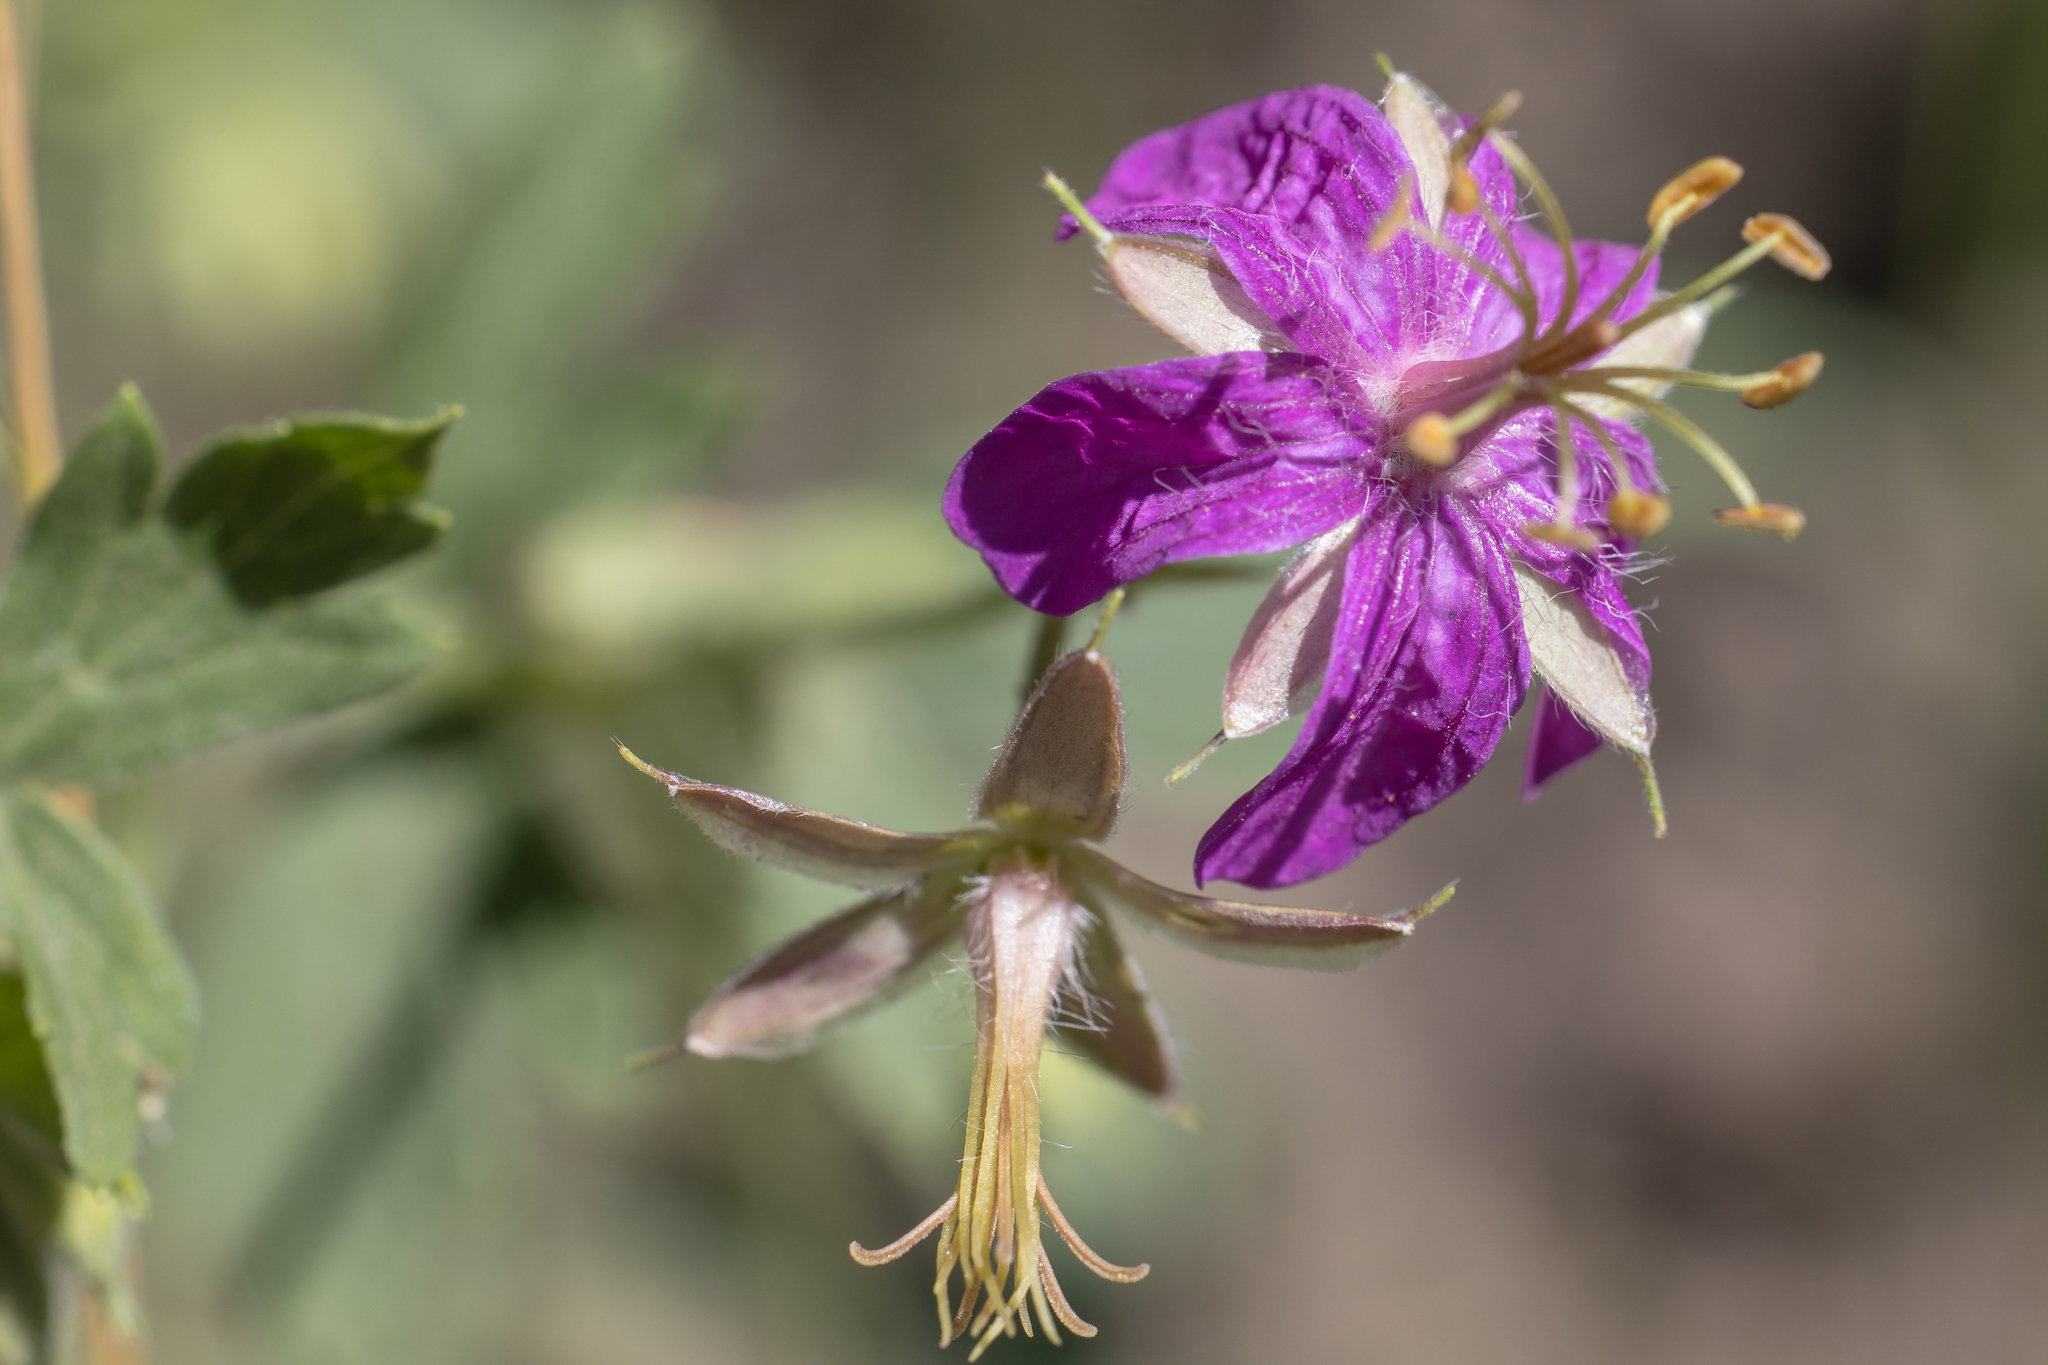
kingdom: Plantae
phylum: Tracheophyta
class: Magnoliopsida
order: Geraniales
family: Geraniaceae
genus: Geranium
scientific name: Geranium caespitosum
